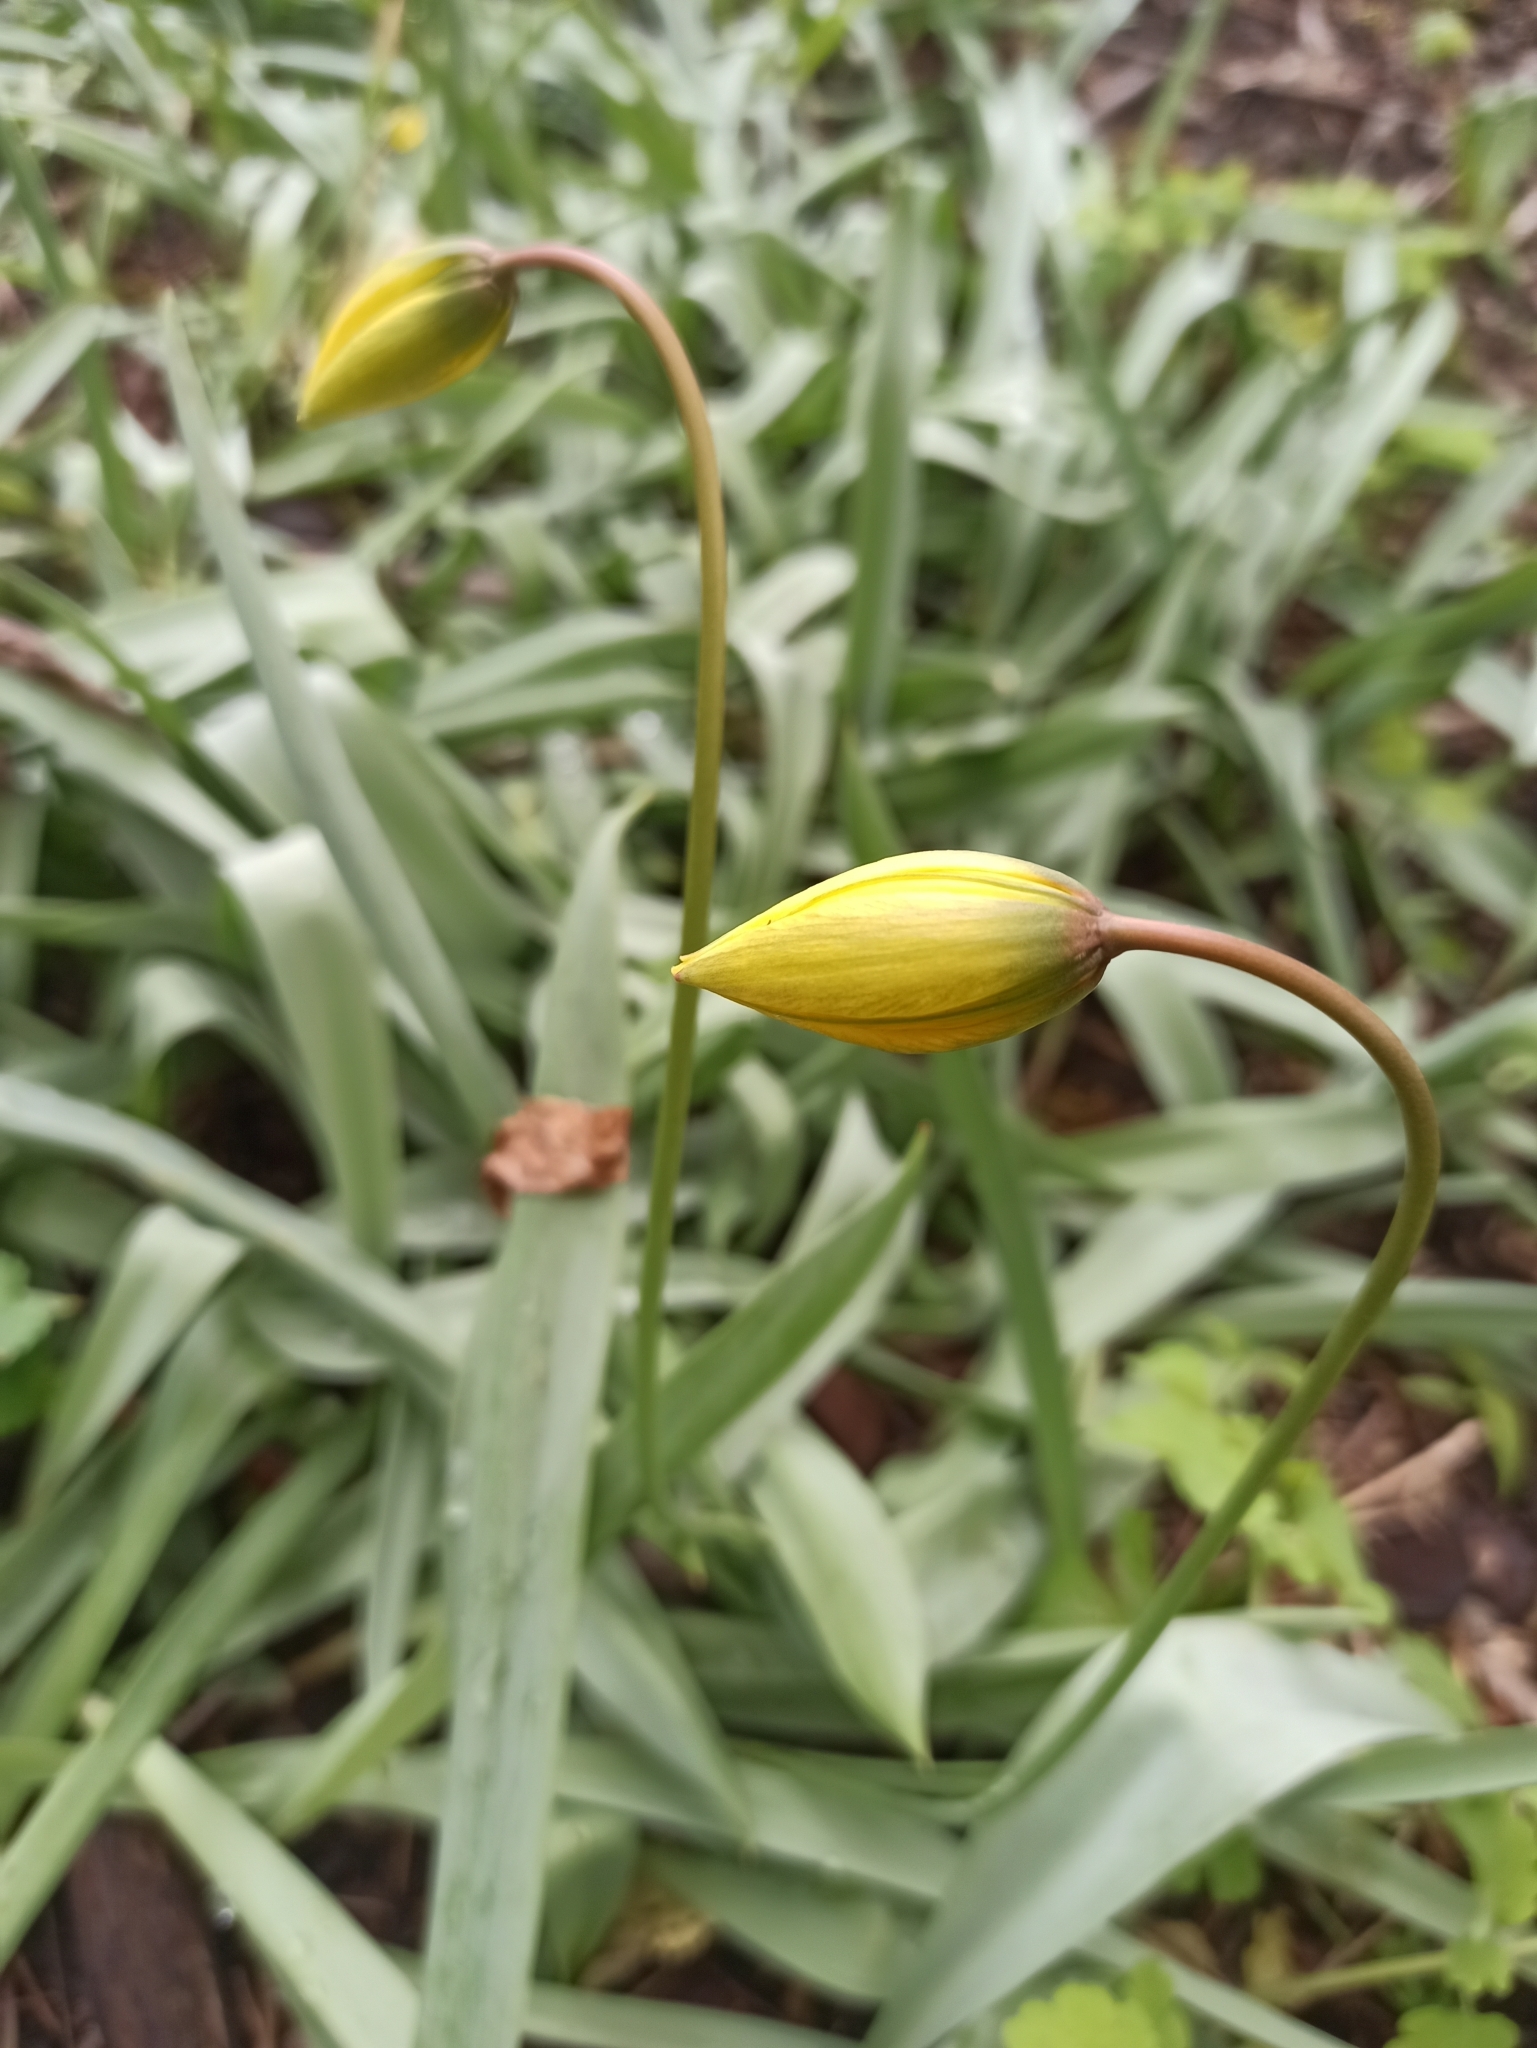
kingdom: Plantae
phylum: Tracheophyta
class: Liliopsida
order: Liliales
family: Liliaceae
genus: Tulipa
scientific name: Tulipa sylvestris
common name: Wild tulip
